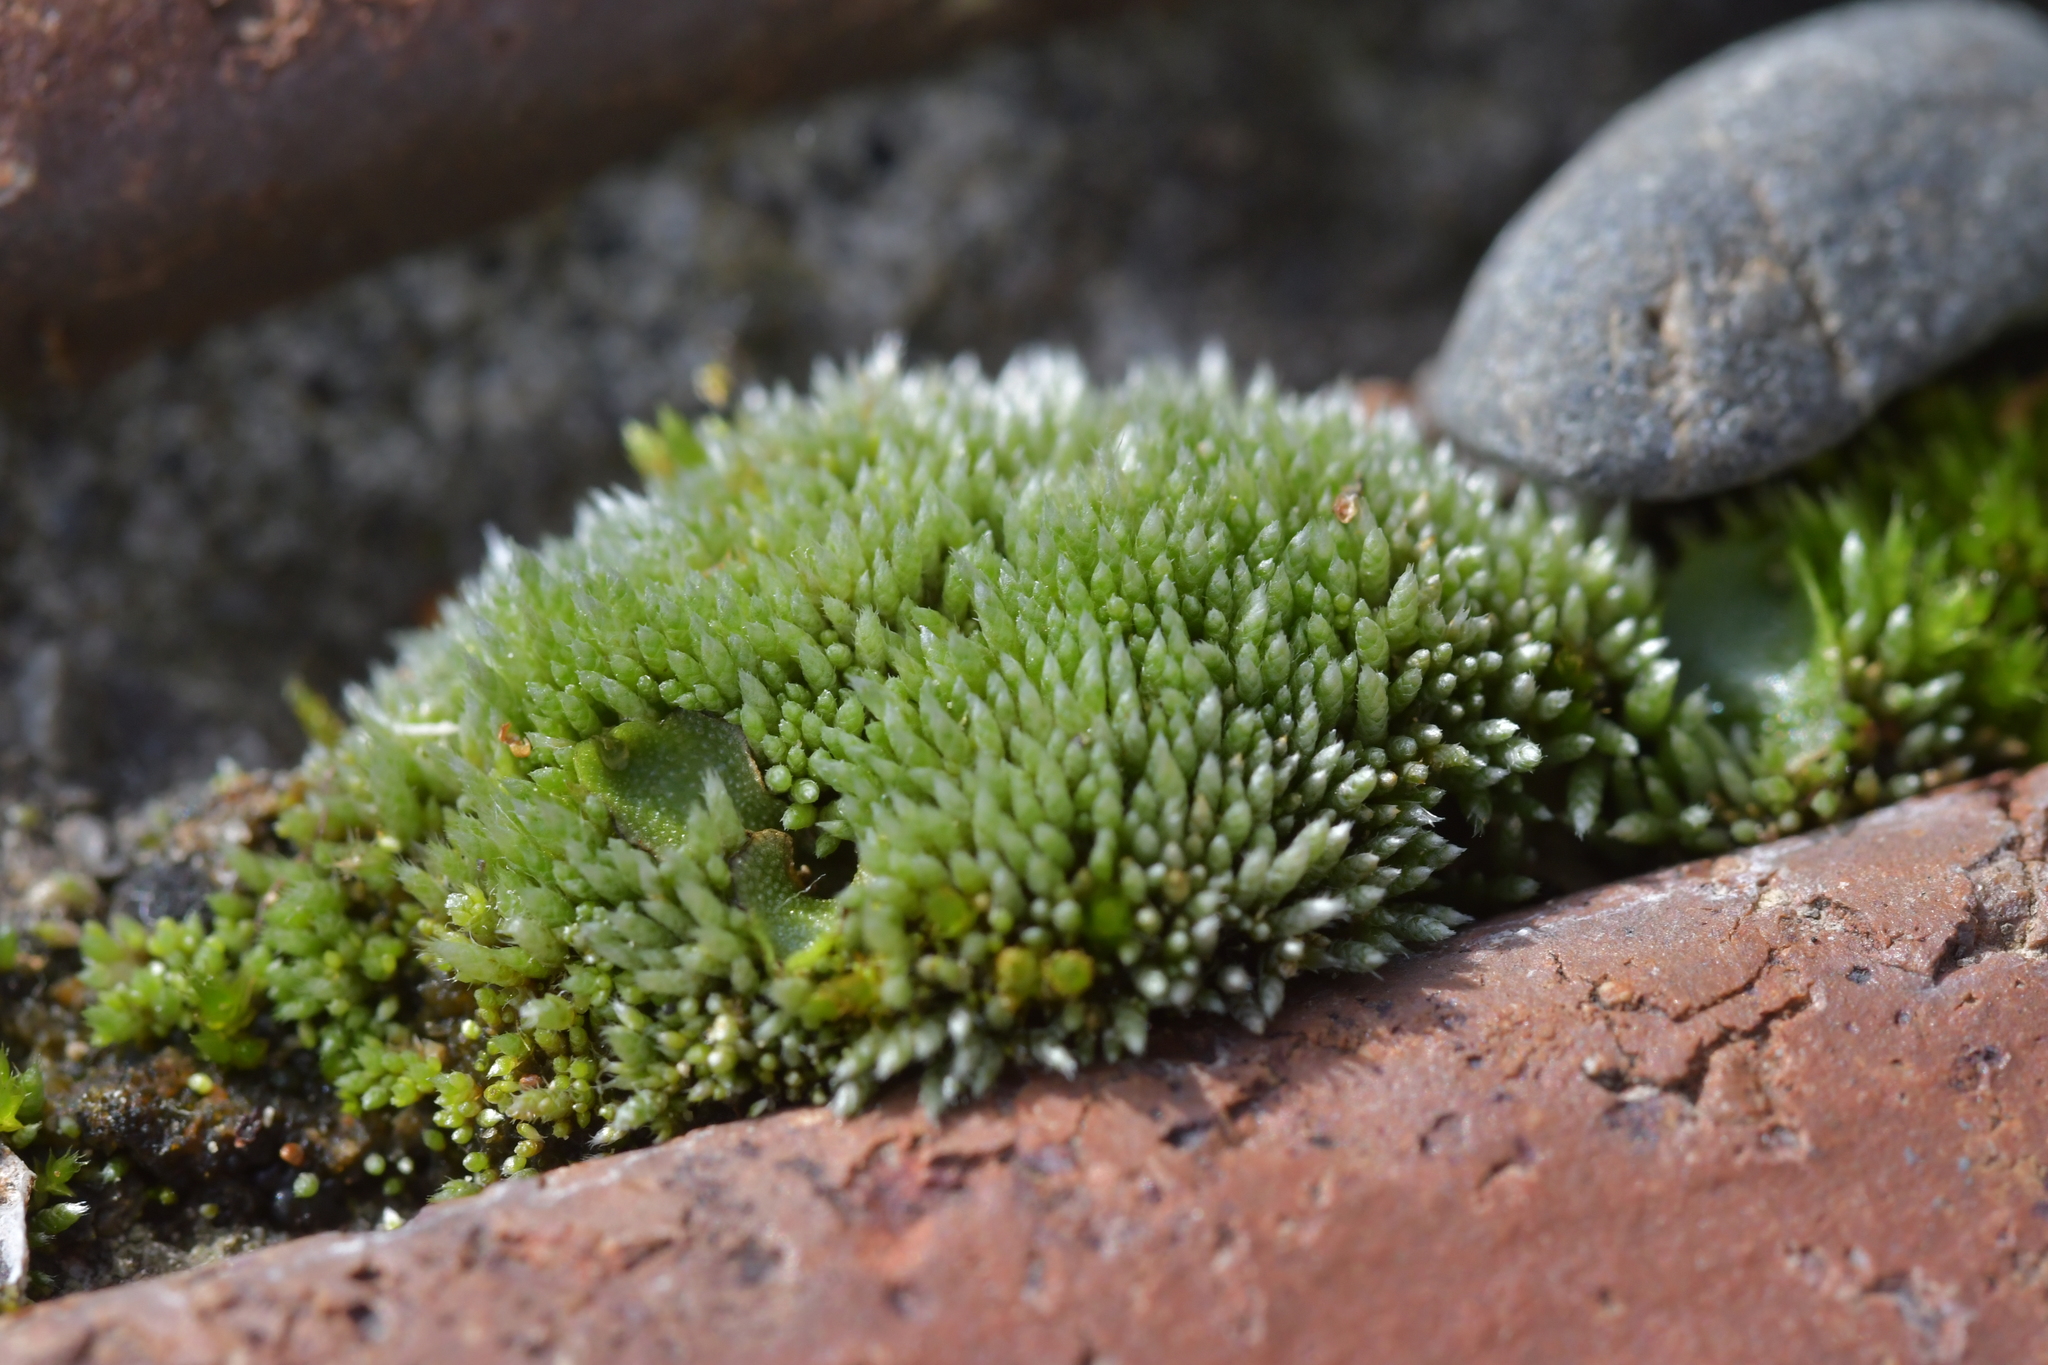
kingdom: Plantae
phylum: Bryophyta
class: Bryopsida
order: Bryales
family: Bryaceae
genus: Bryum
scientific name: Bryum argenteum
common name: Silver-moss
